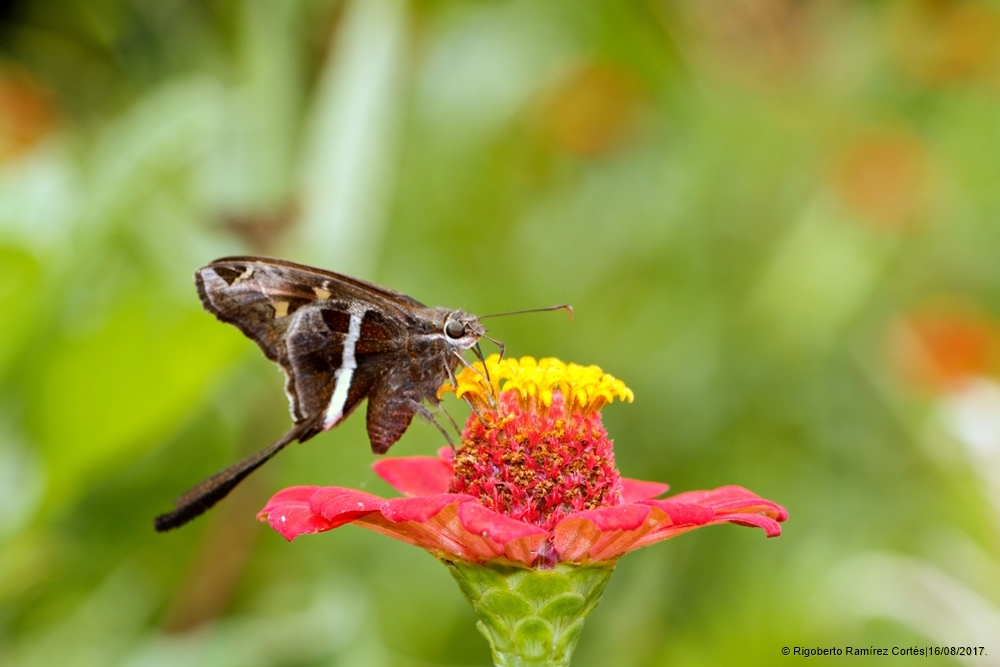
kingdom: Animalia
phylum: Arthropoda
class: Insecta
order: Lepidoptera
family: Hesperiidae
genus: Chioides
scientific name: Chioides catillus
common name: Silverbanded skipper
